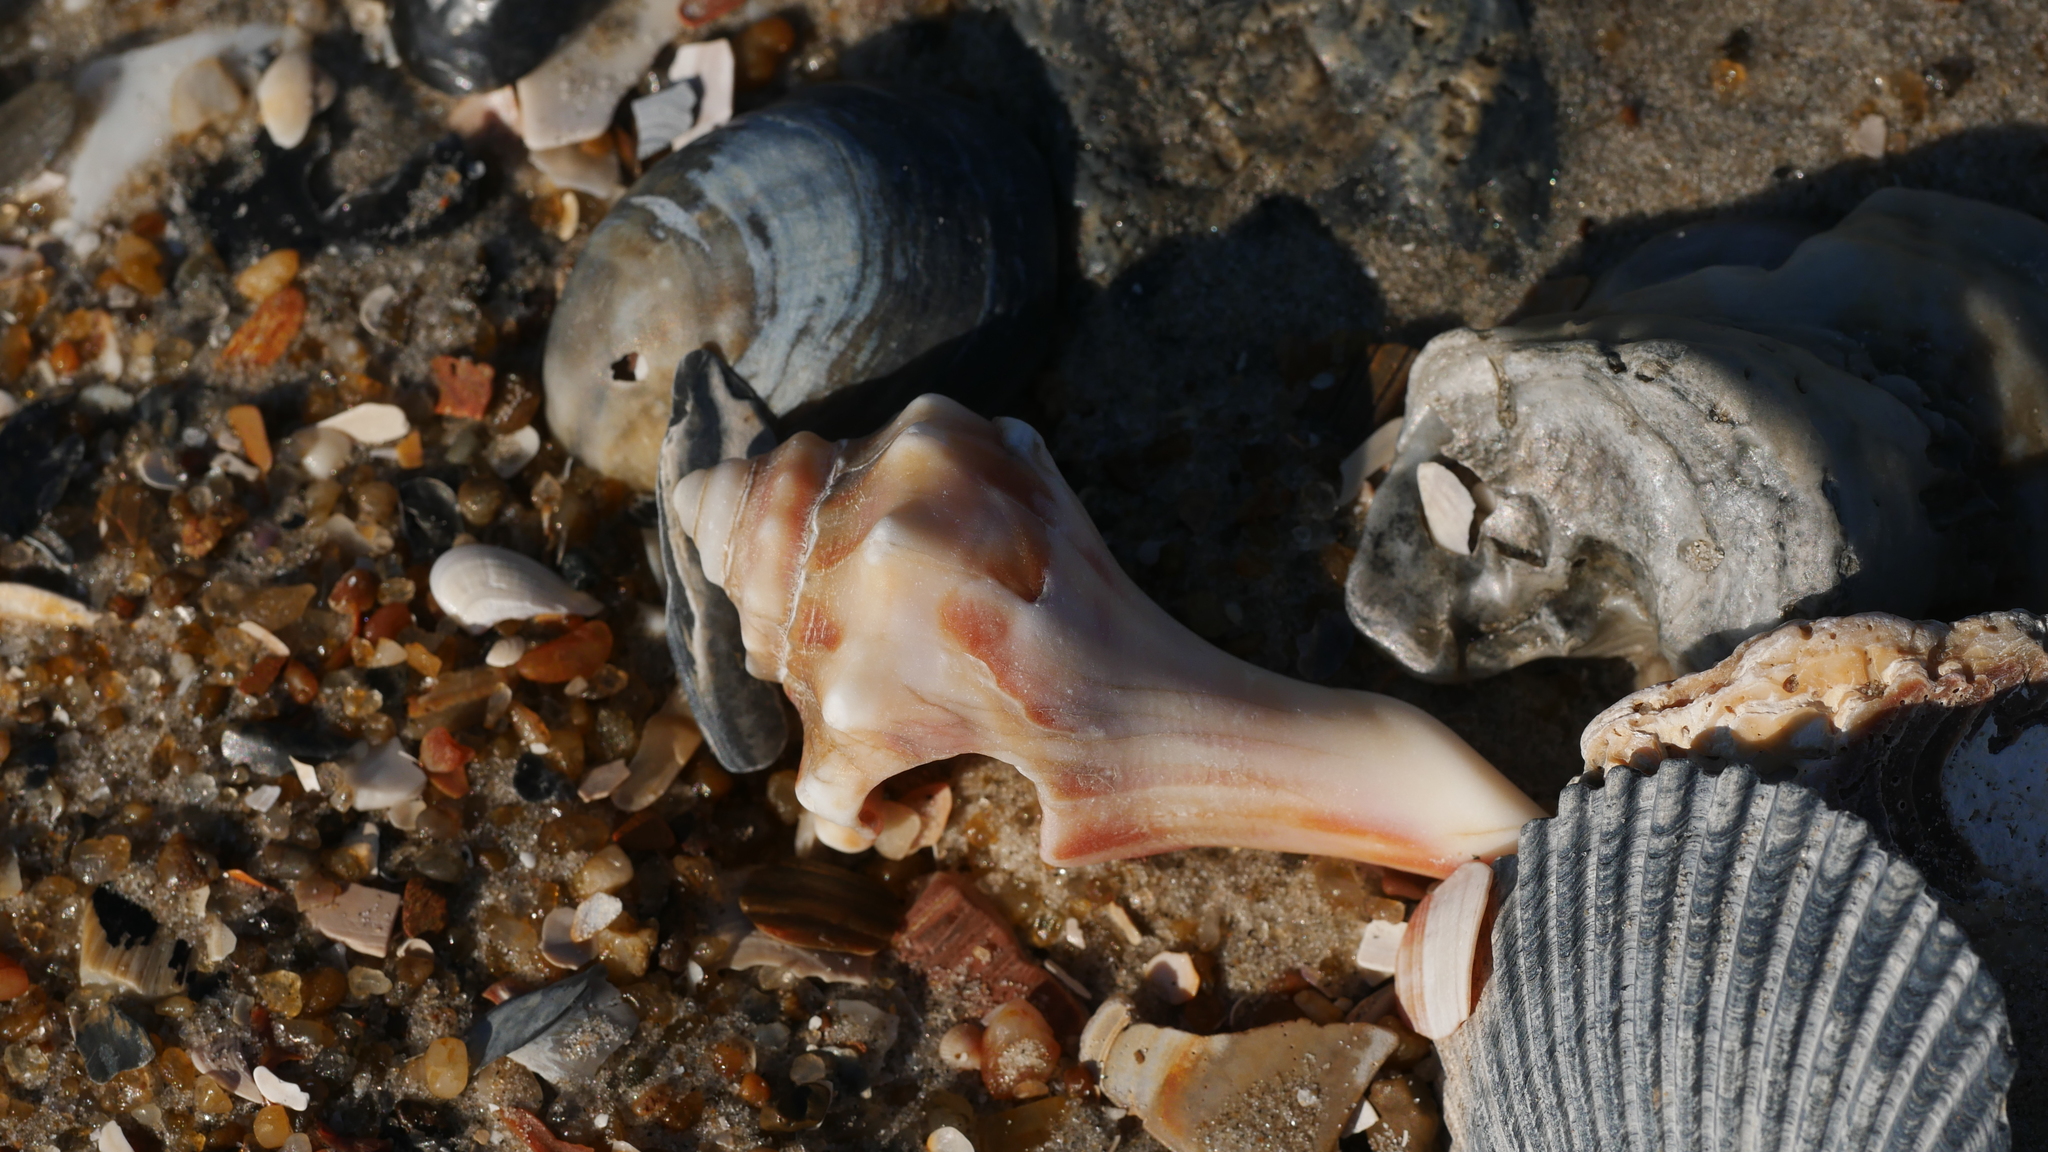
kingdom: Animalia
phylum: Mollusca
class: Gastropoda
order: Neogastropoda
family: Busyconidae
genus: Busycon
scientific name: Busycon carica
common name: Knobbed whelk
